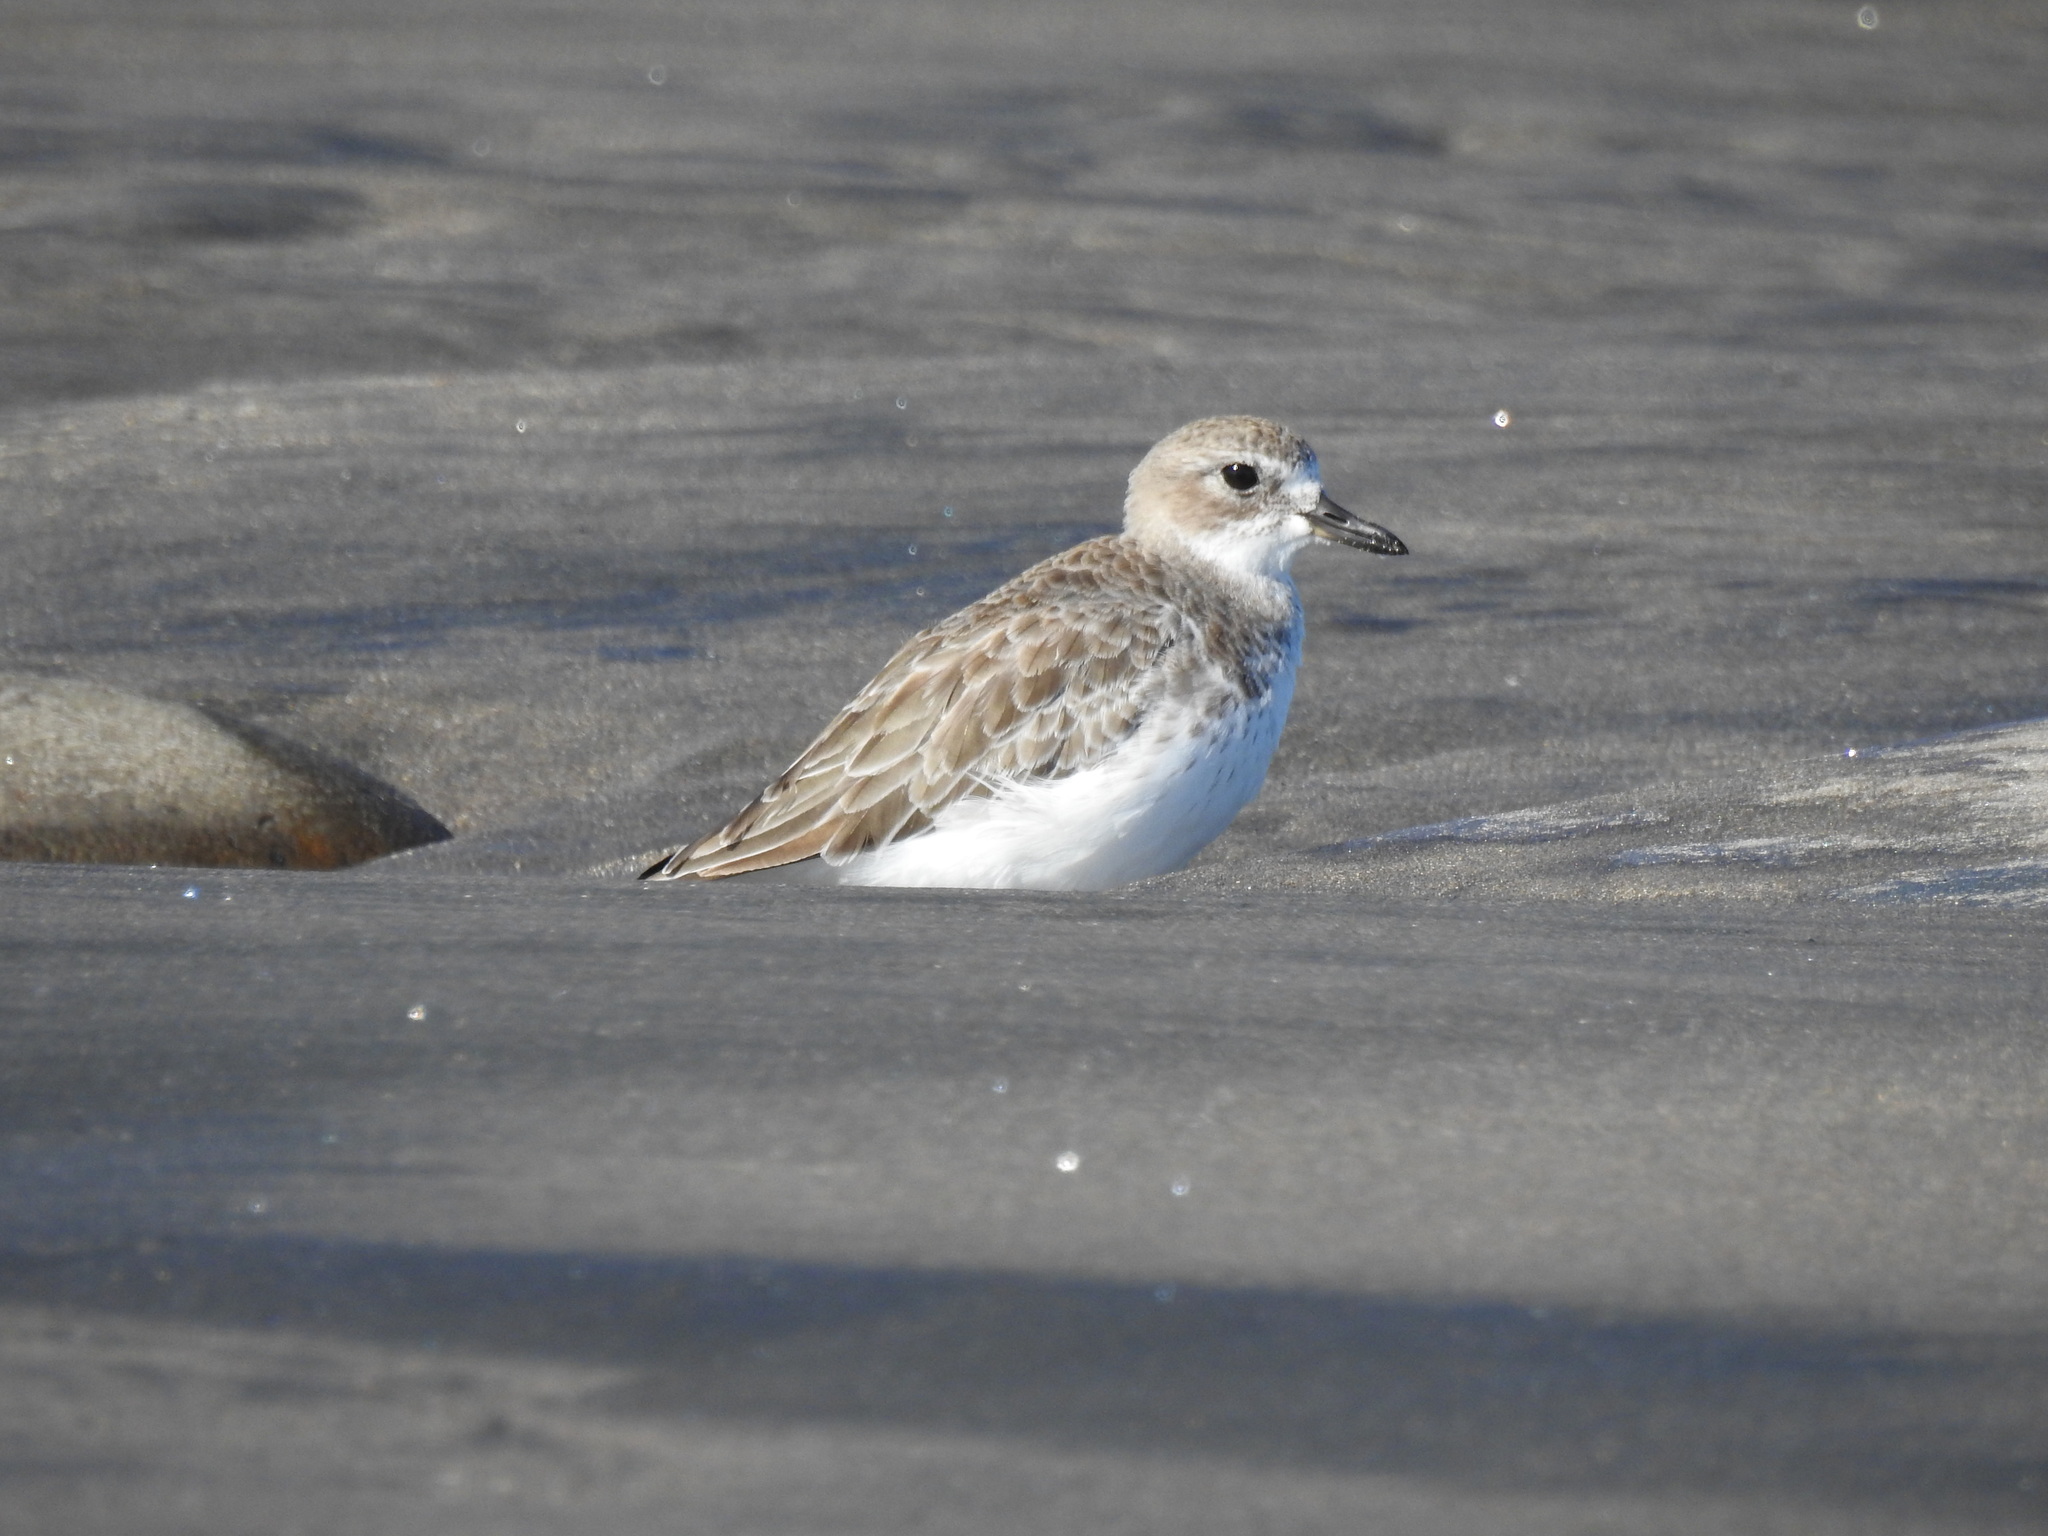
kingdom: Animalia
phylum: Chordata
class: Aves
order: Charadriiformes
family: Charadriidae
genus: Anarhynchus
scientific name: Anarhynchus
